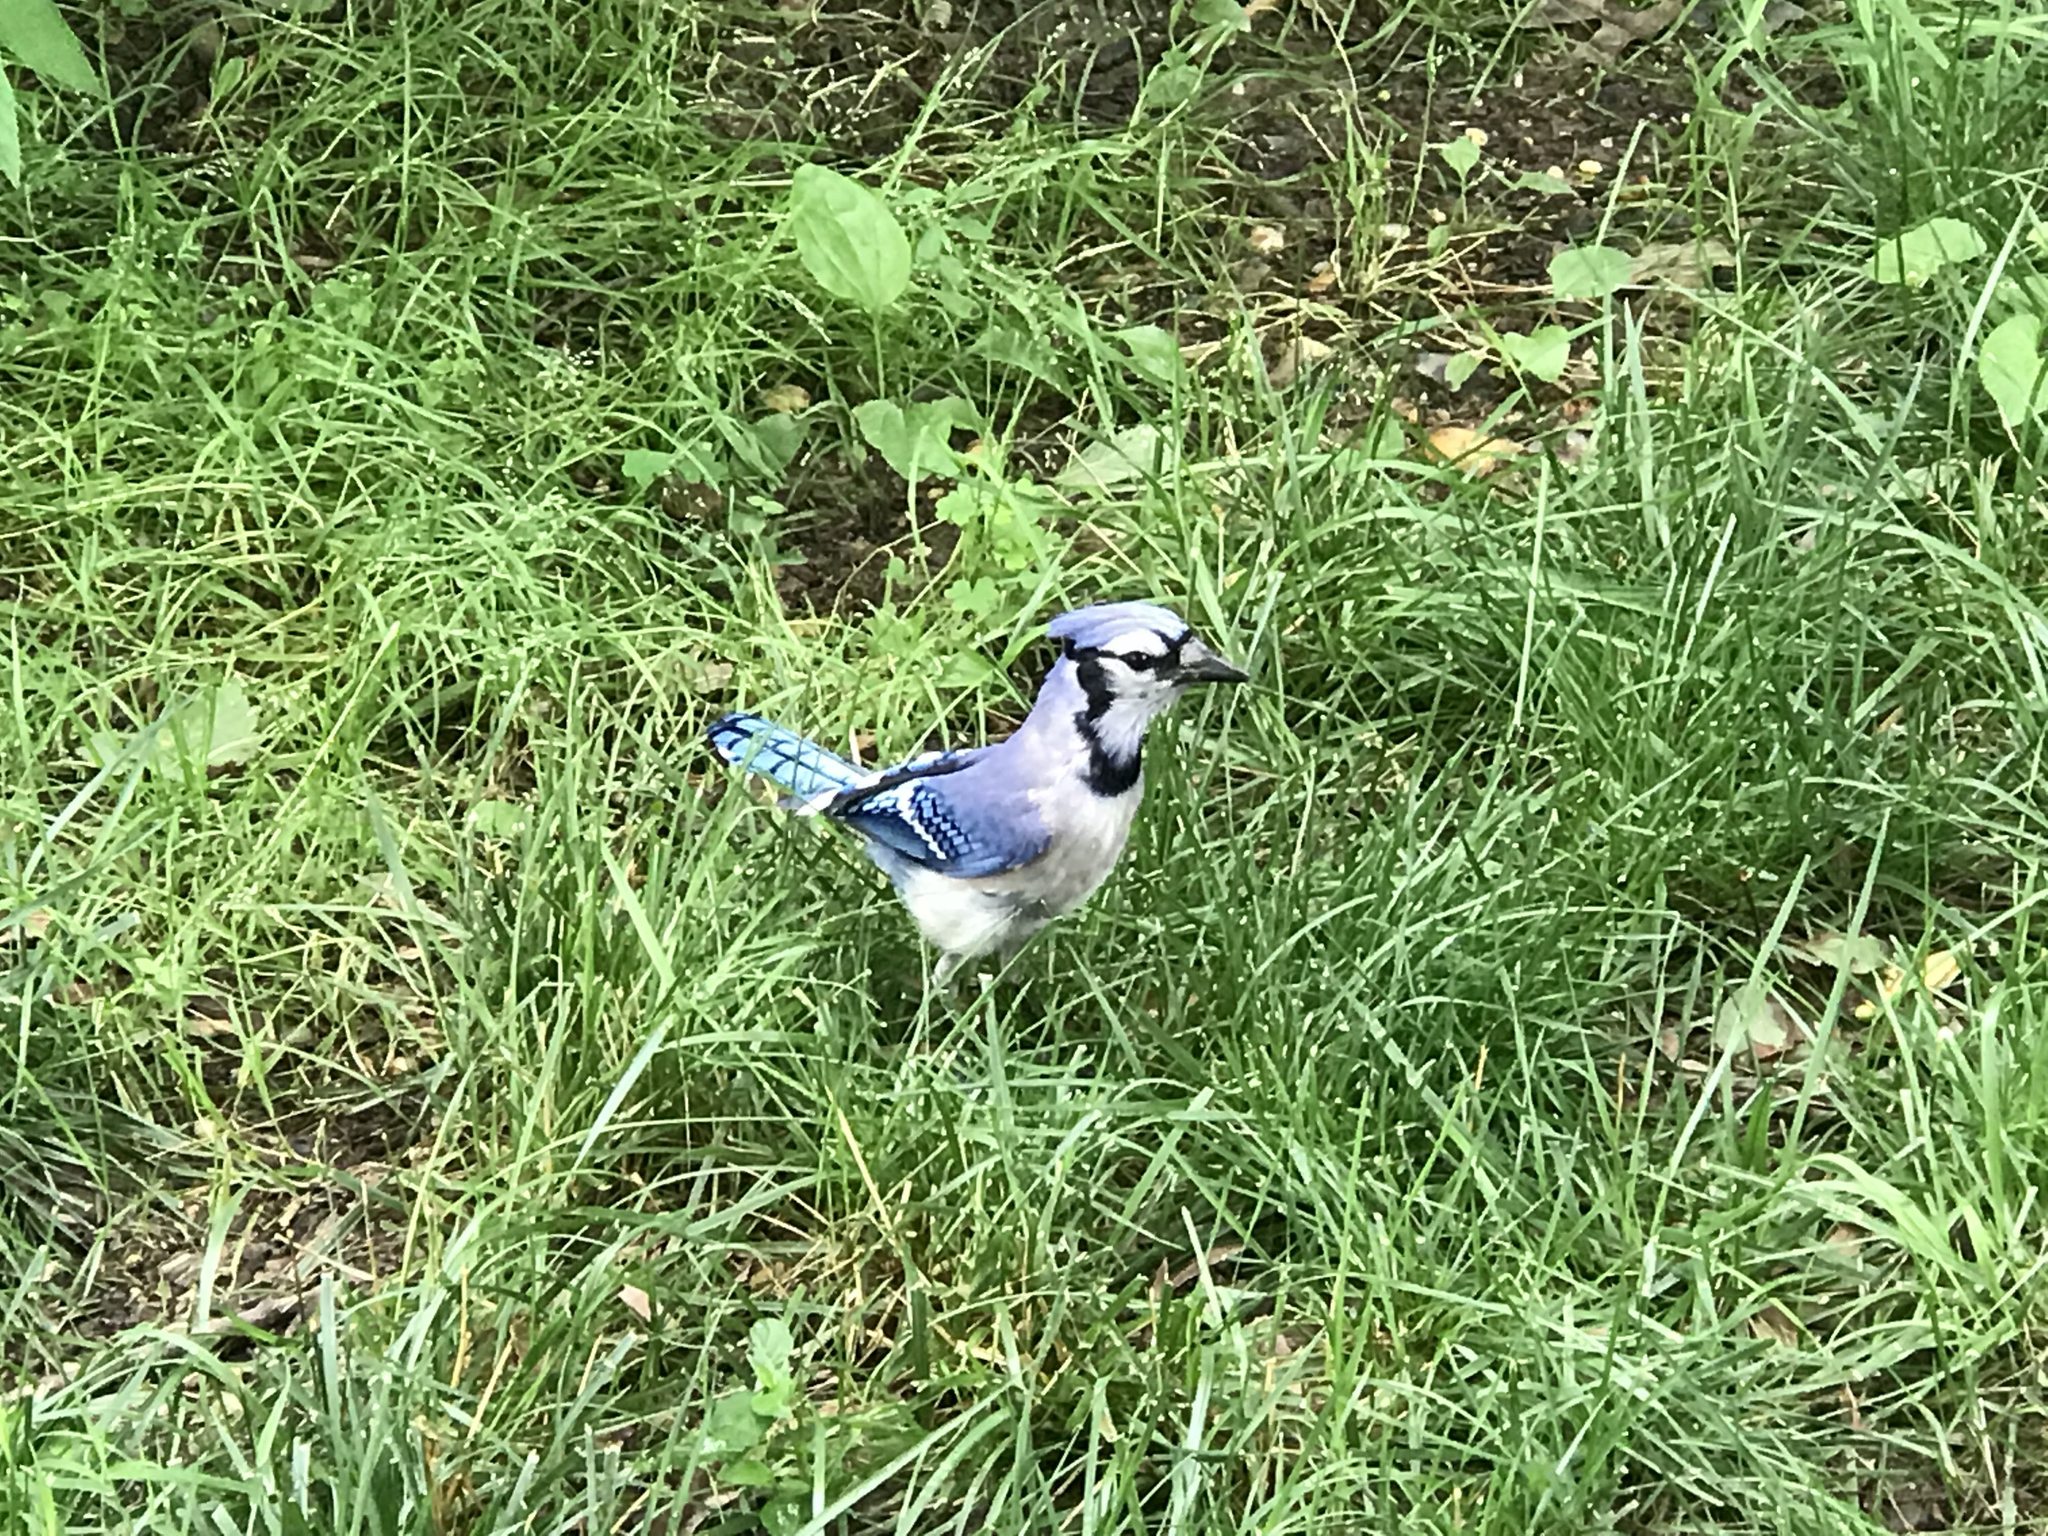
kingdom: Animalia
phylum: Chordata
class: Aves
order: Passeriformes
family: Corvidae
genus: Cyanocitta
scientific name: Cyanocitta cristata
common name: Blue jay
